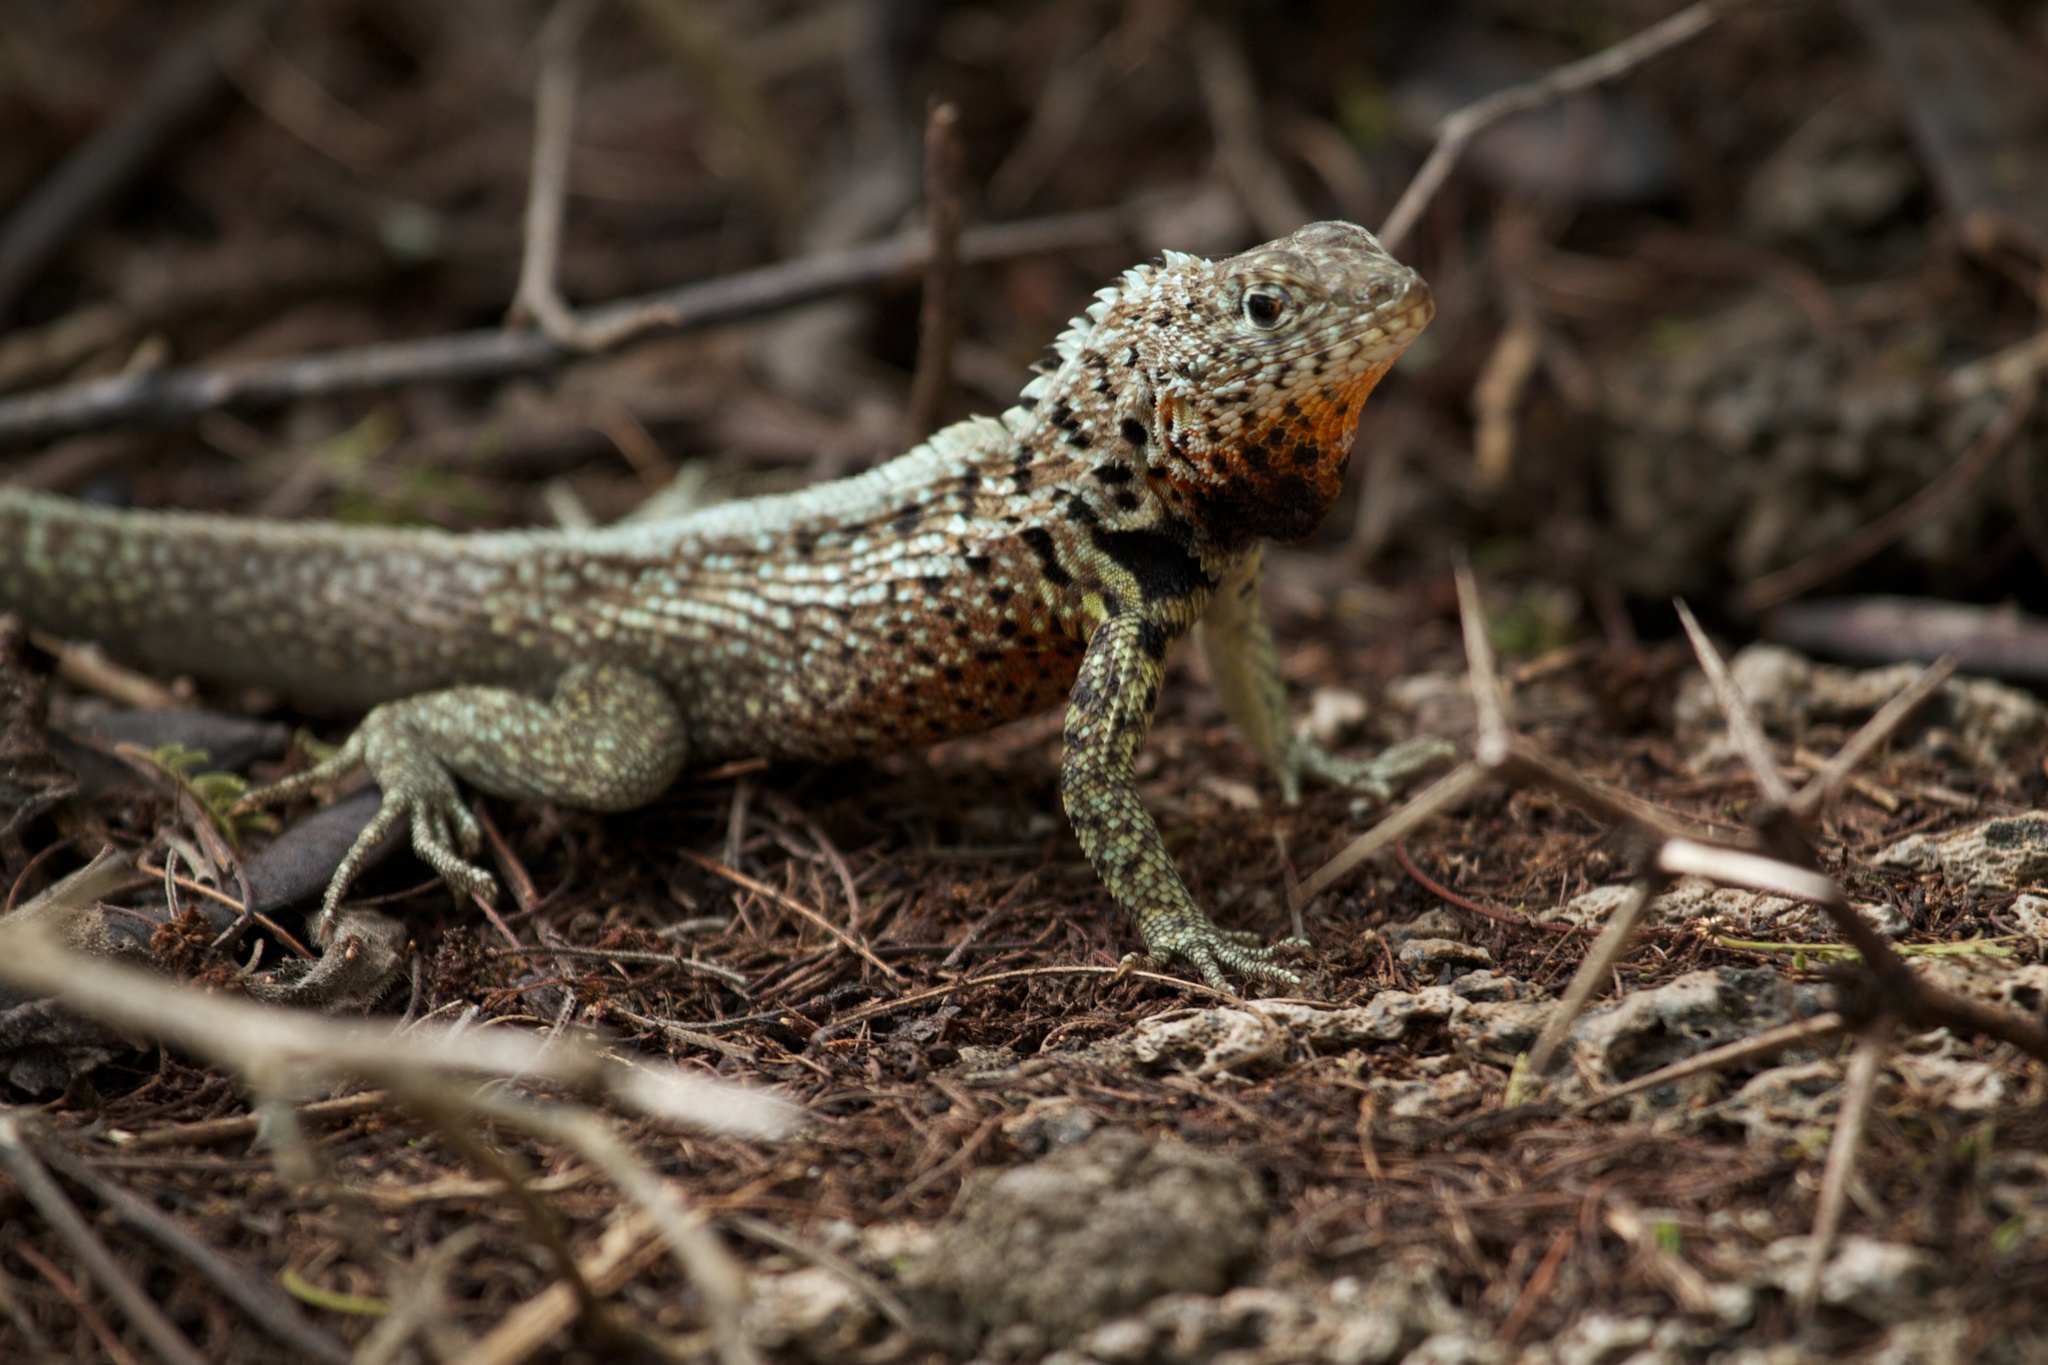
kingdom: Animalia
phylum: Chordata
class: Squamata
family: Tropiduridae
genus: Microlophus
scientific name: Microlophus indefatigabilis
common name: Galapagos lava lizard
